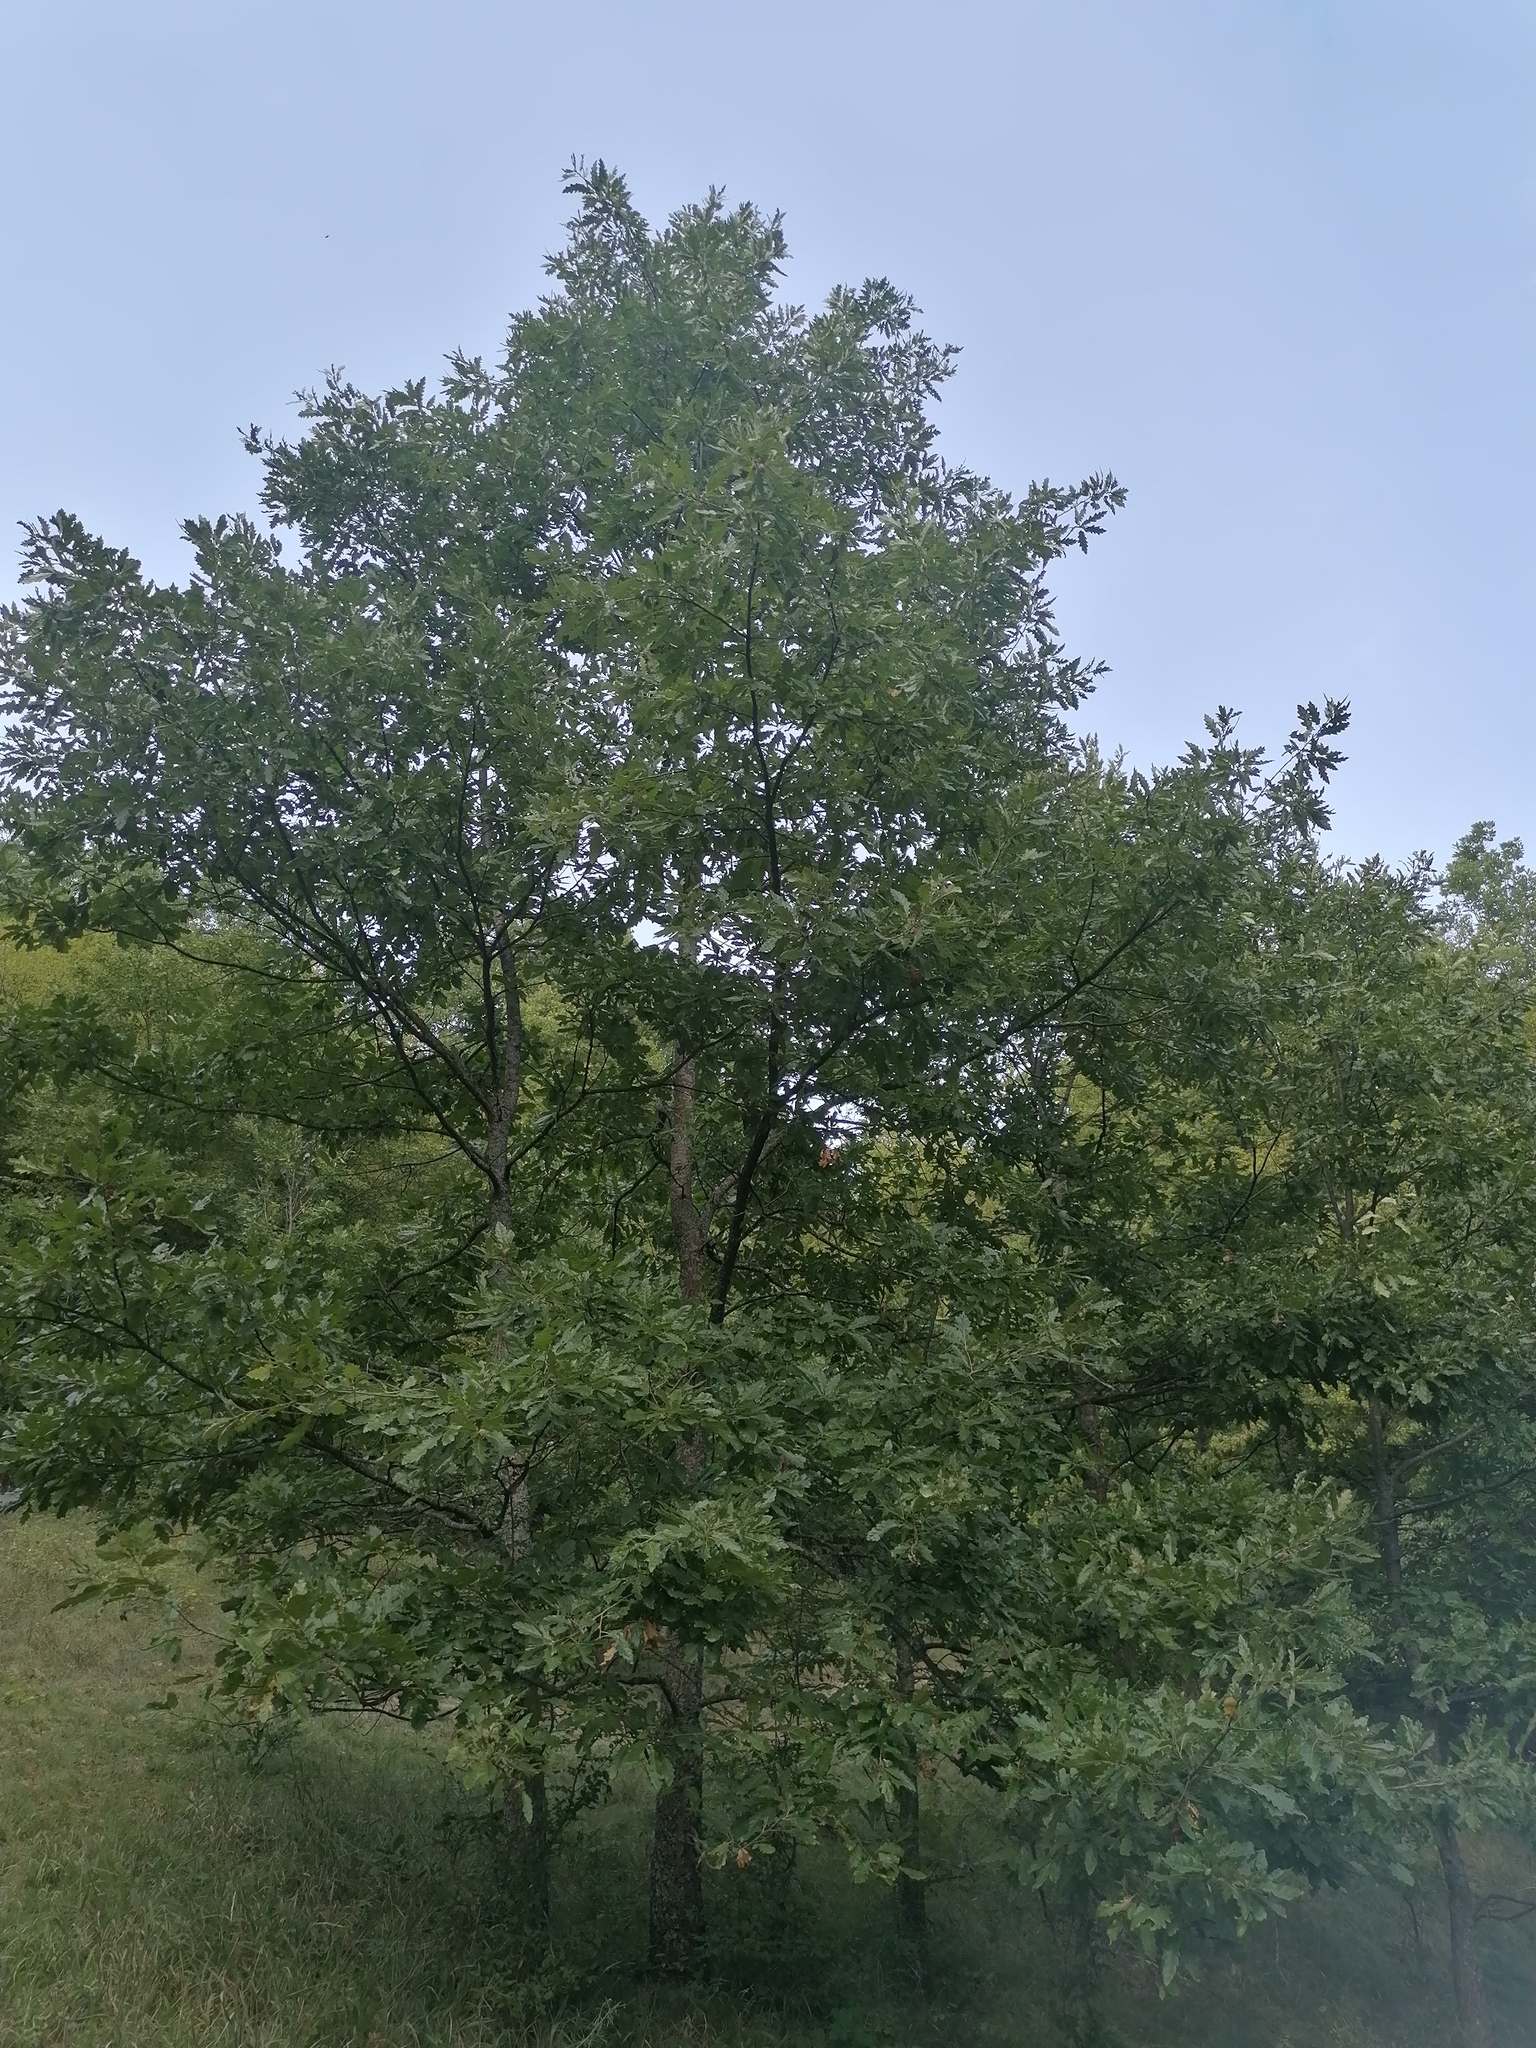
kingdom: Plantae
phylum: Tracheophyta
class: Magnoliopsida
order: Fagales
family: Fagaceae
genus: Quercus
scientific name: Quercus cerris
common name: Turkey oak
